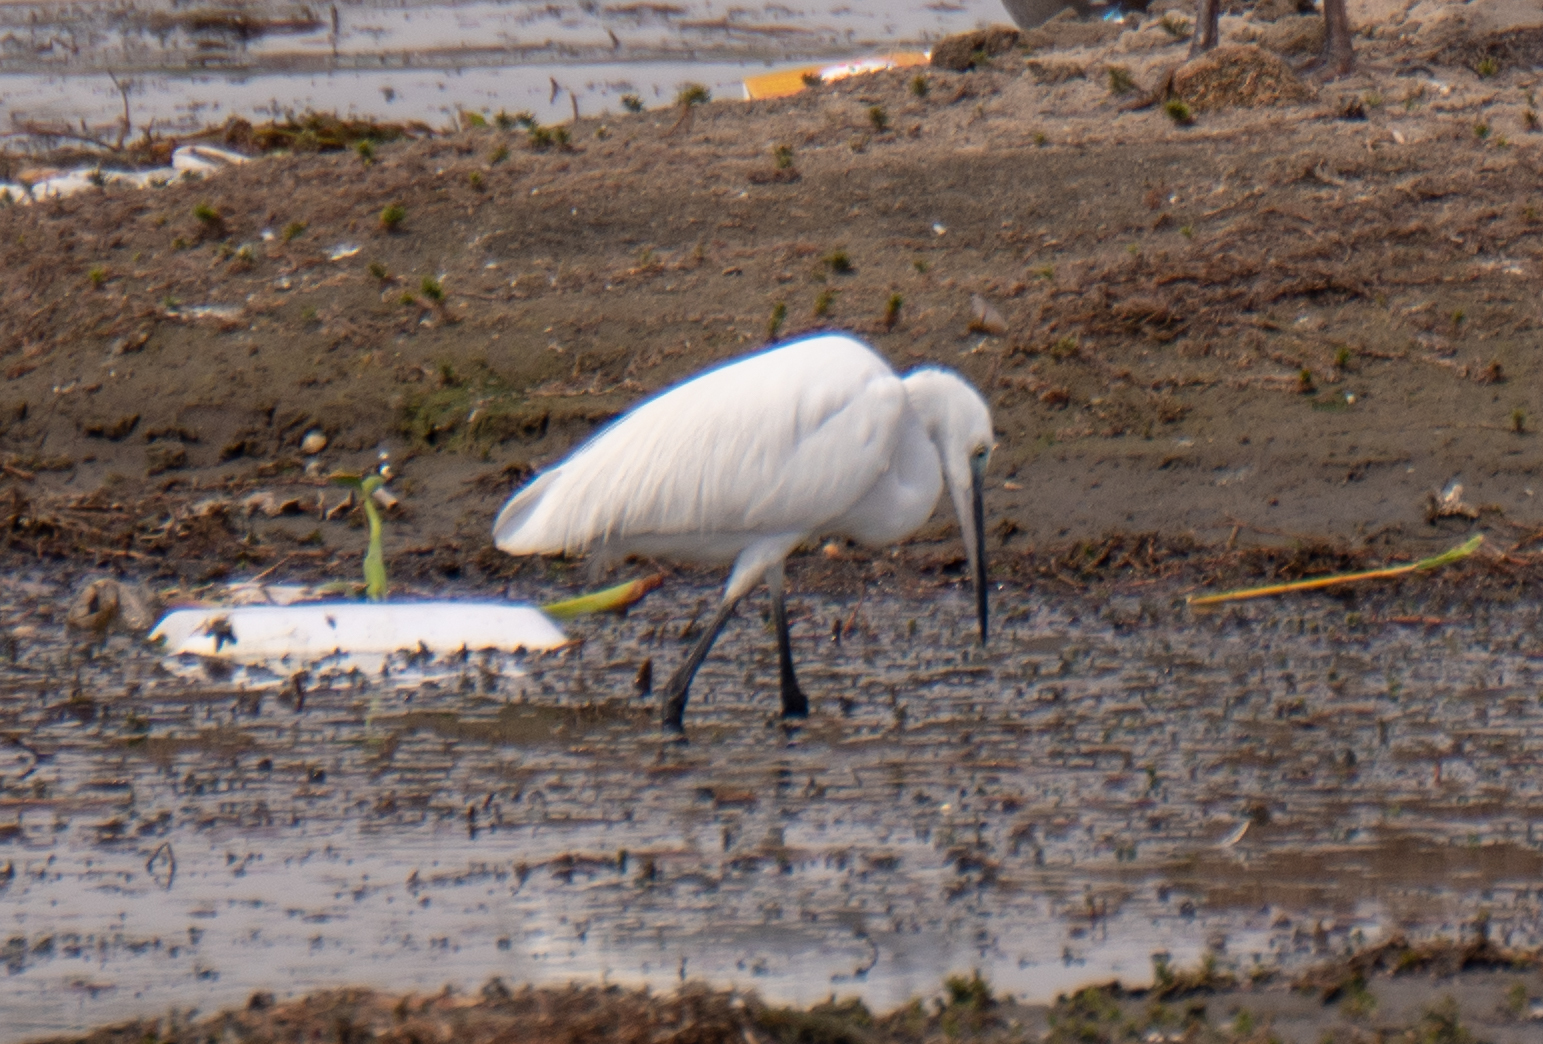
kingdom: Animalia
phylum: Chordata
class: Aves
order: Pelecaniformes
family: Ardeidae
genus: Egretta
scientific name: Egretta garzetta
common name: Little egret
